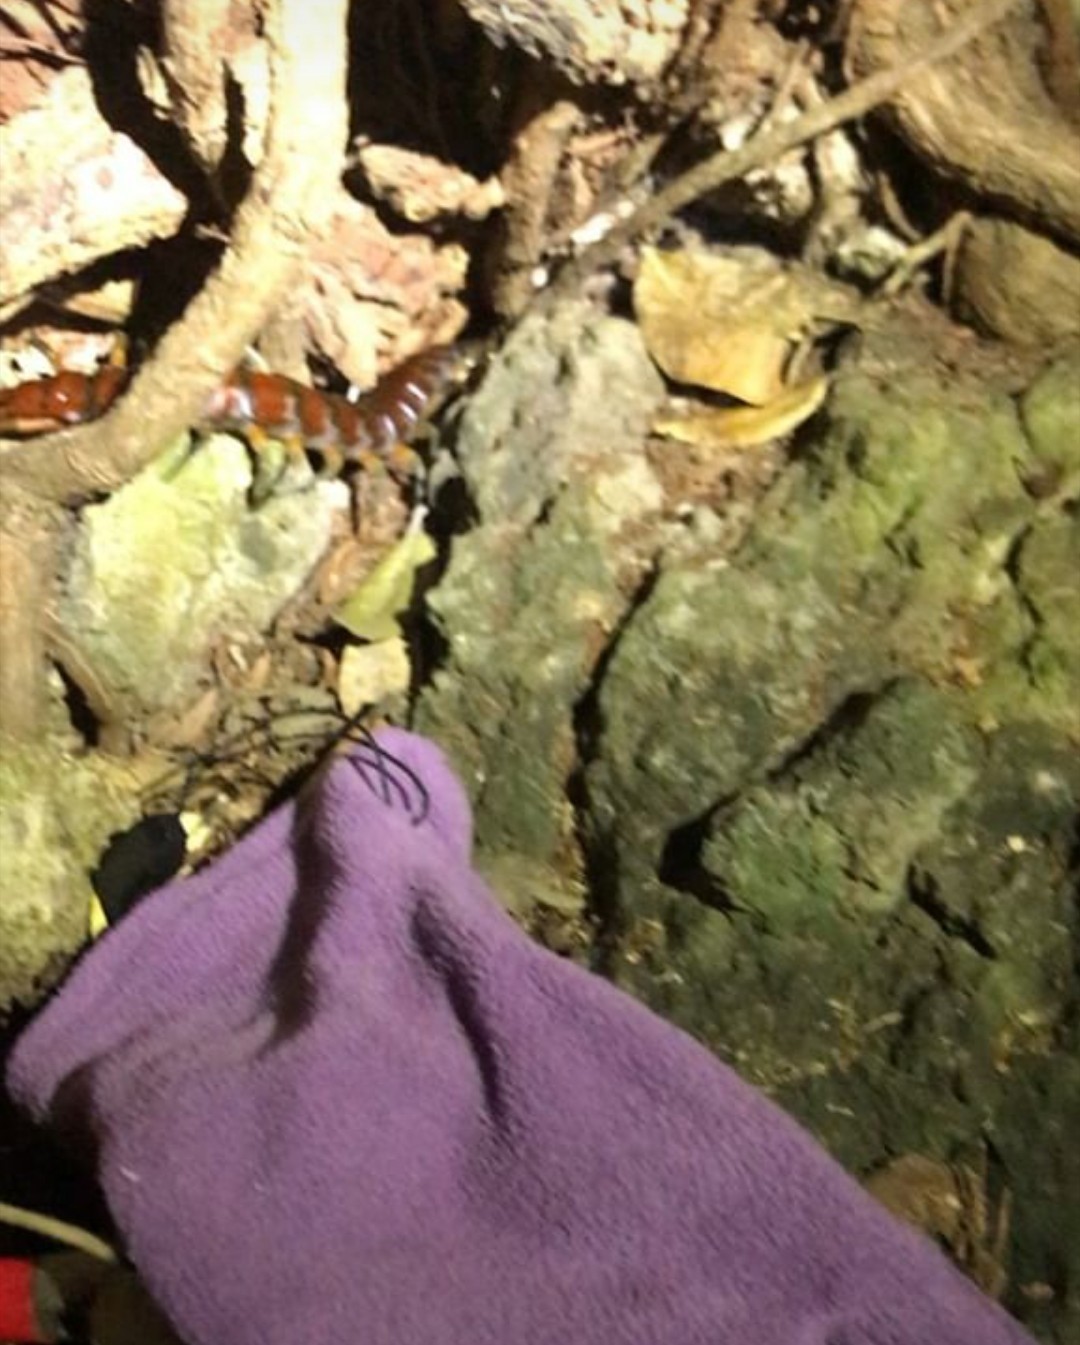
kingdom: Animalia
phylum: Arthropoda
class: Chilopoda
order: Scolopendromorpha
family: Scolopendridae
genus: Cormocephalus
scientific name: Cormocephalus rubriceps
